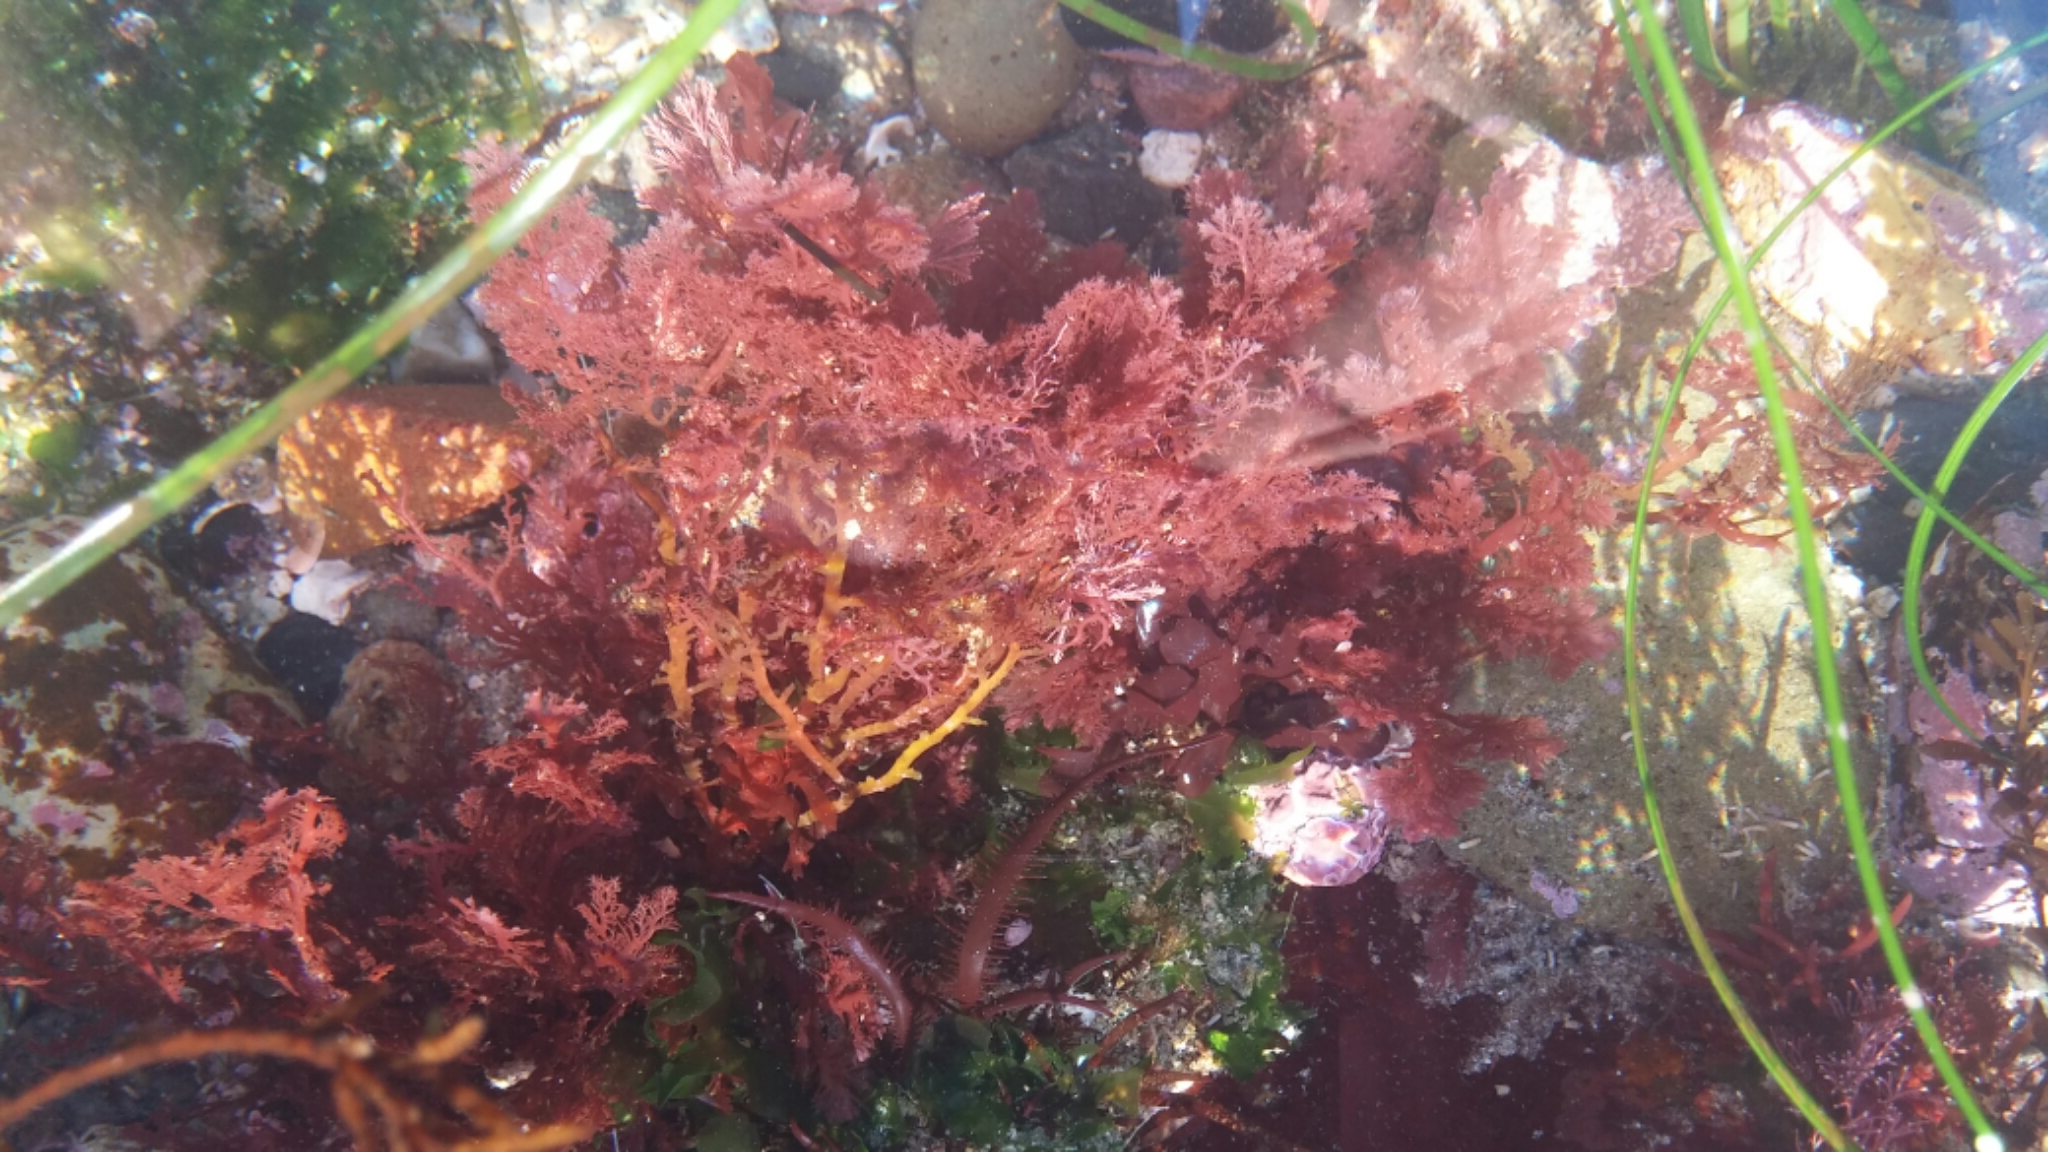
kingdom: Plantae
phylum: Rhodophyta
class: Florideophyceae
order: Plocamiales
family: Plocamiaceae
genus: Plocamium
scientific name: Plocamium cartilagineum
